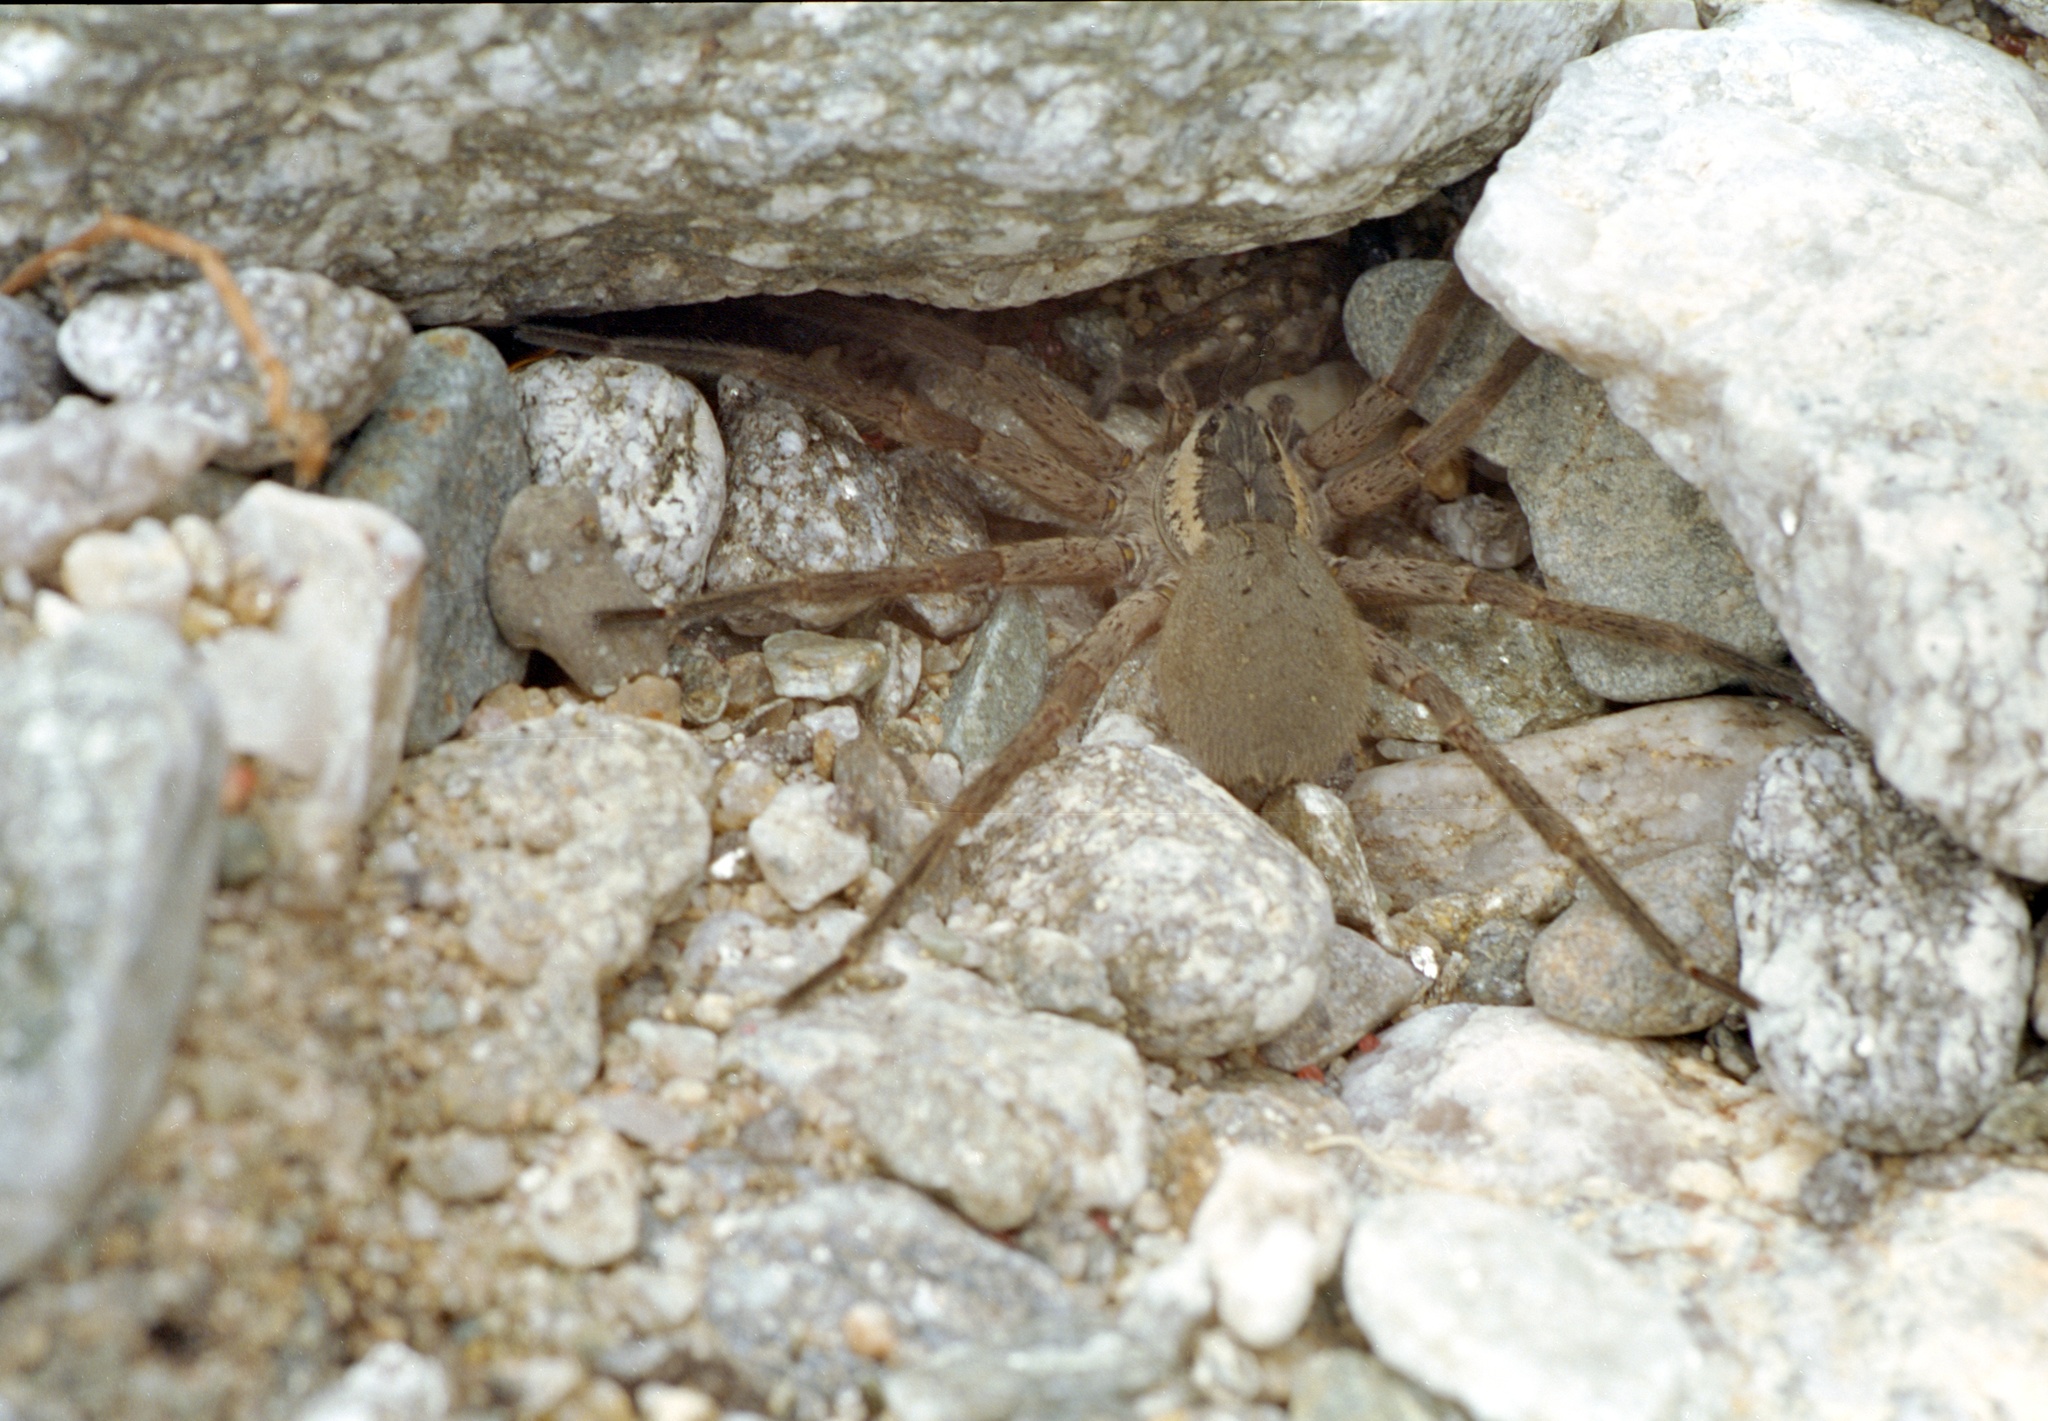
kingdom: Animalia
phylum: Arthropoda
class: Arachnida
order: Araneae
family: Pisauridae
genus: Dolomedes
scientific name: Dolomedes aquaticus
